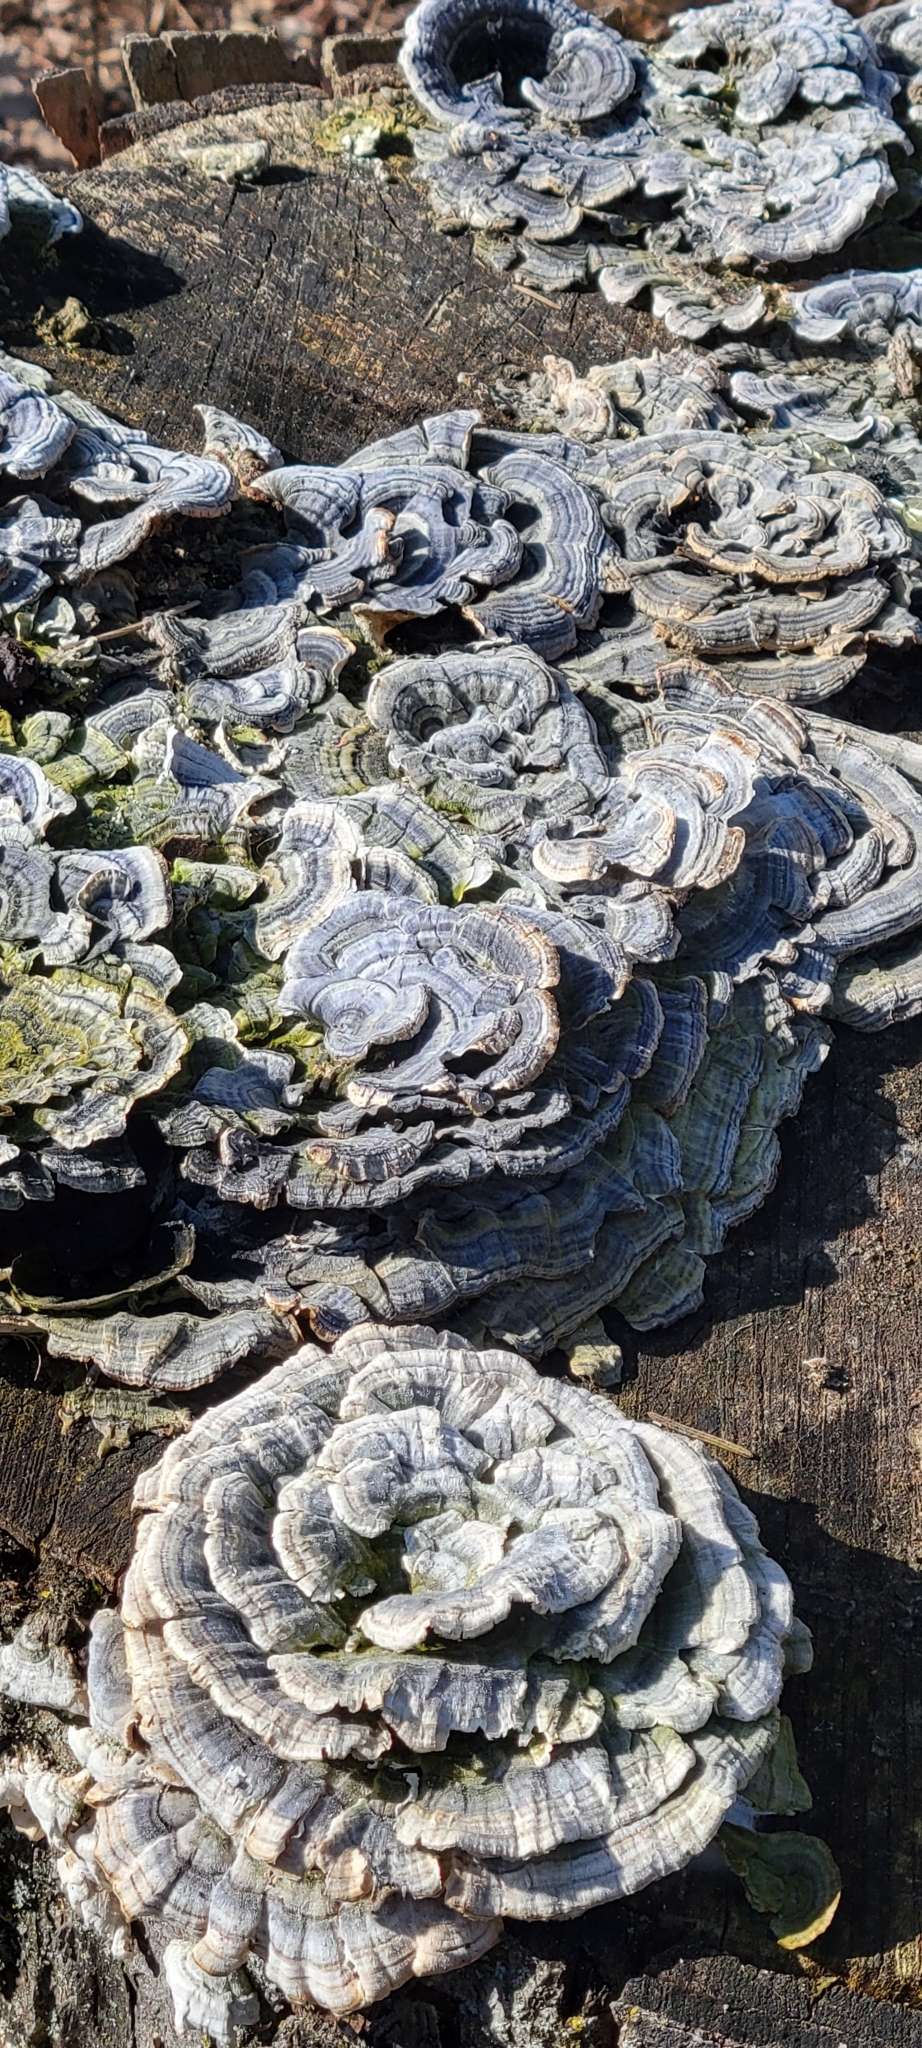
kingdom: Fungi
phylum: Basidiomycota
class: Agaricomycetes
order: Polyporales
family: Polyporaceae
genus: Trametes
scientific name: Trametes versicolor
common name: Turkeytail
